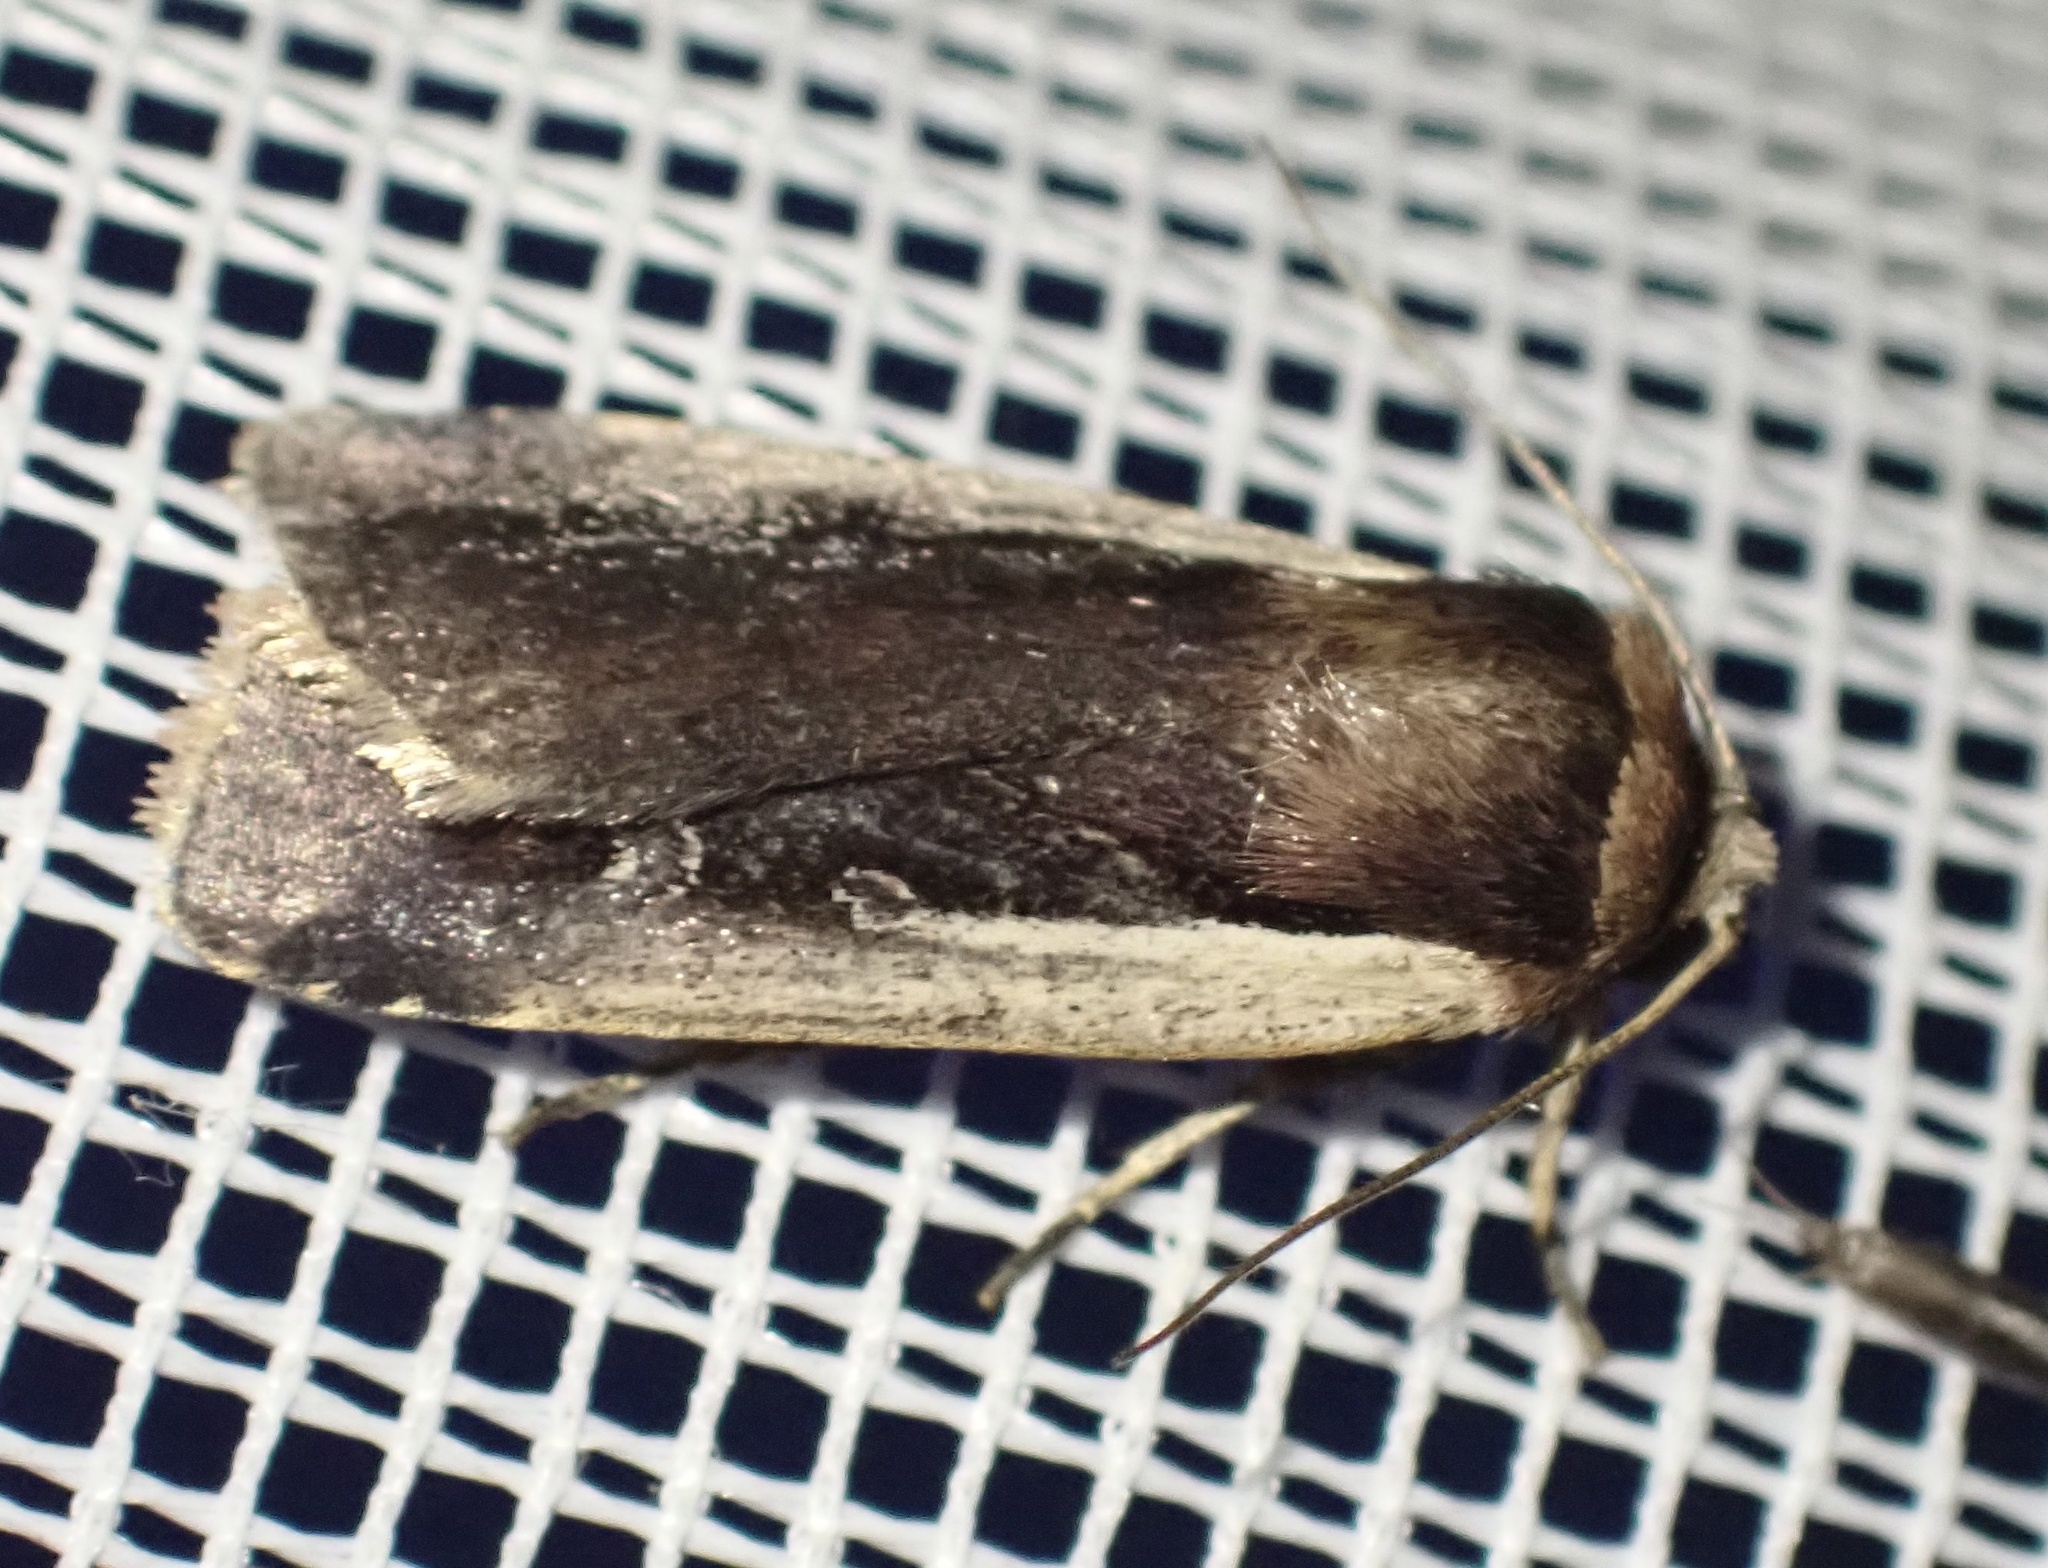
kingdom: Animalia
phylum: Arthropoda
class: Insecta
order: Lepidoptera
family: Noctuidae
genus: Ochropleura
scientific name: Ochropleura plecta
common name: Flame shoulder
